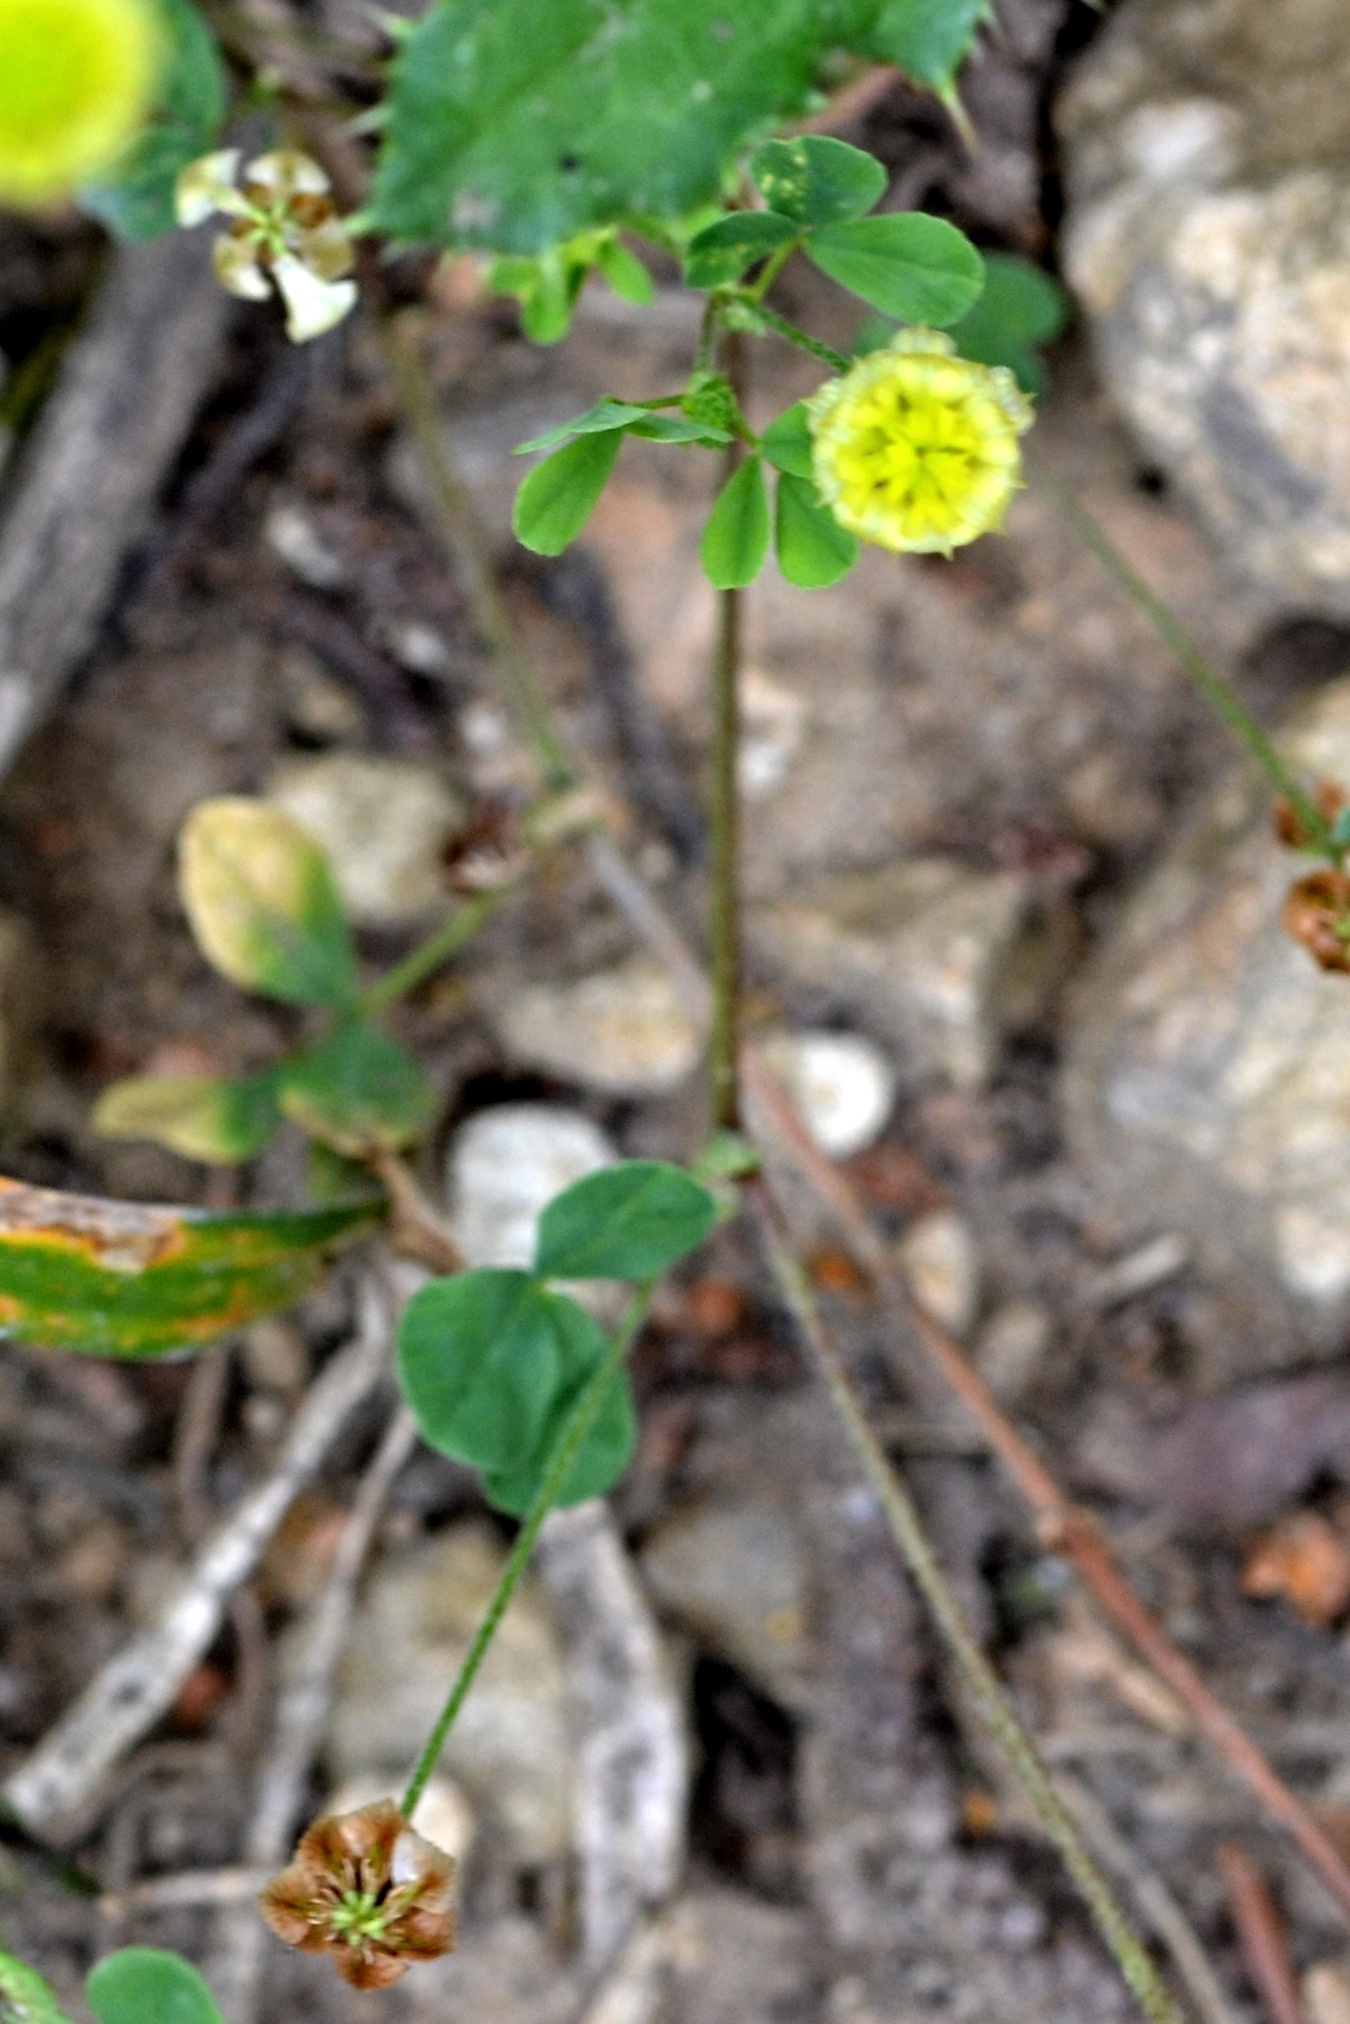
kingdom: Plantae
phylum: Tracheophyta
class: Magnoliopsida
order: Fabales
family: Fabaceae
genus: Trifolium
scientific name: Trifolium campestre
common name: Field clover
